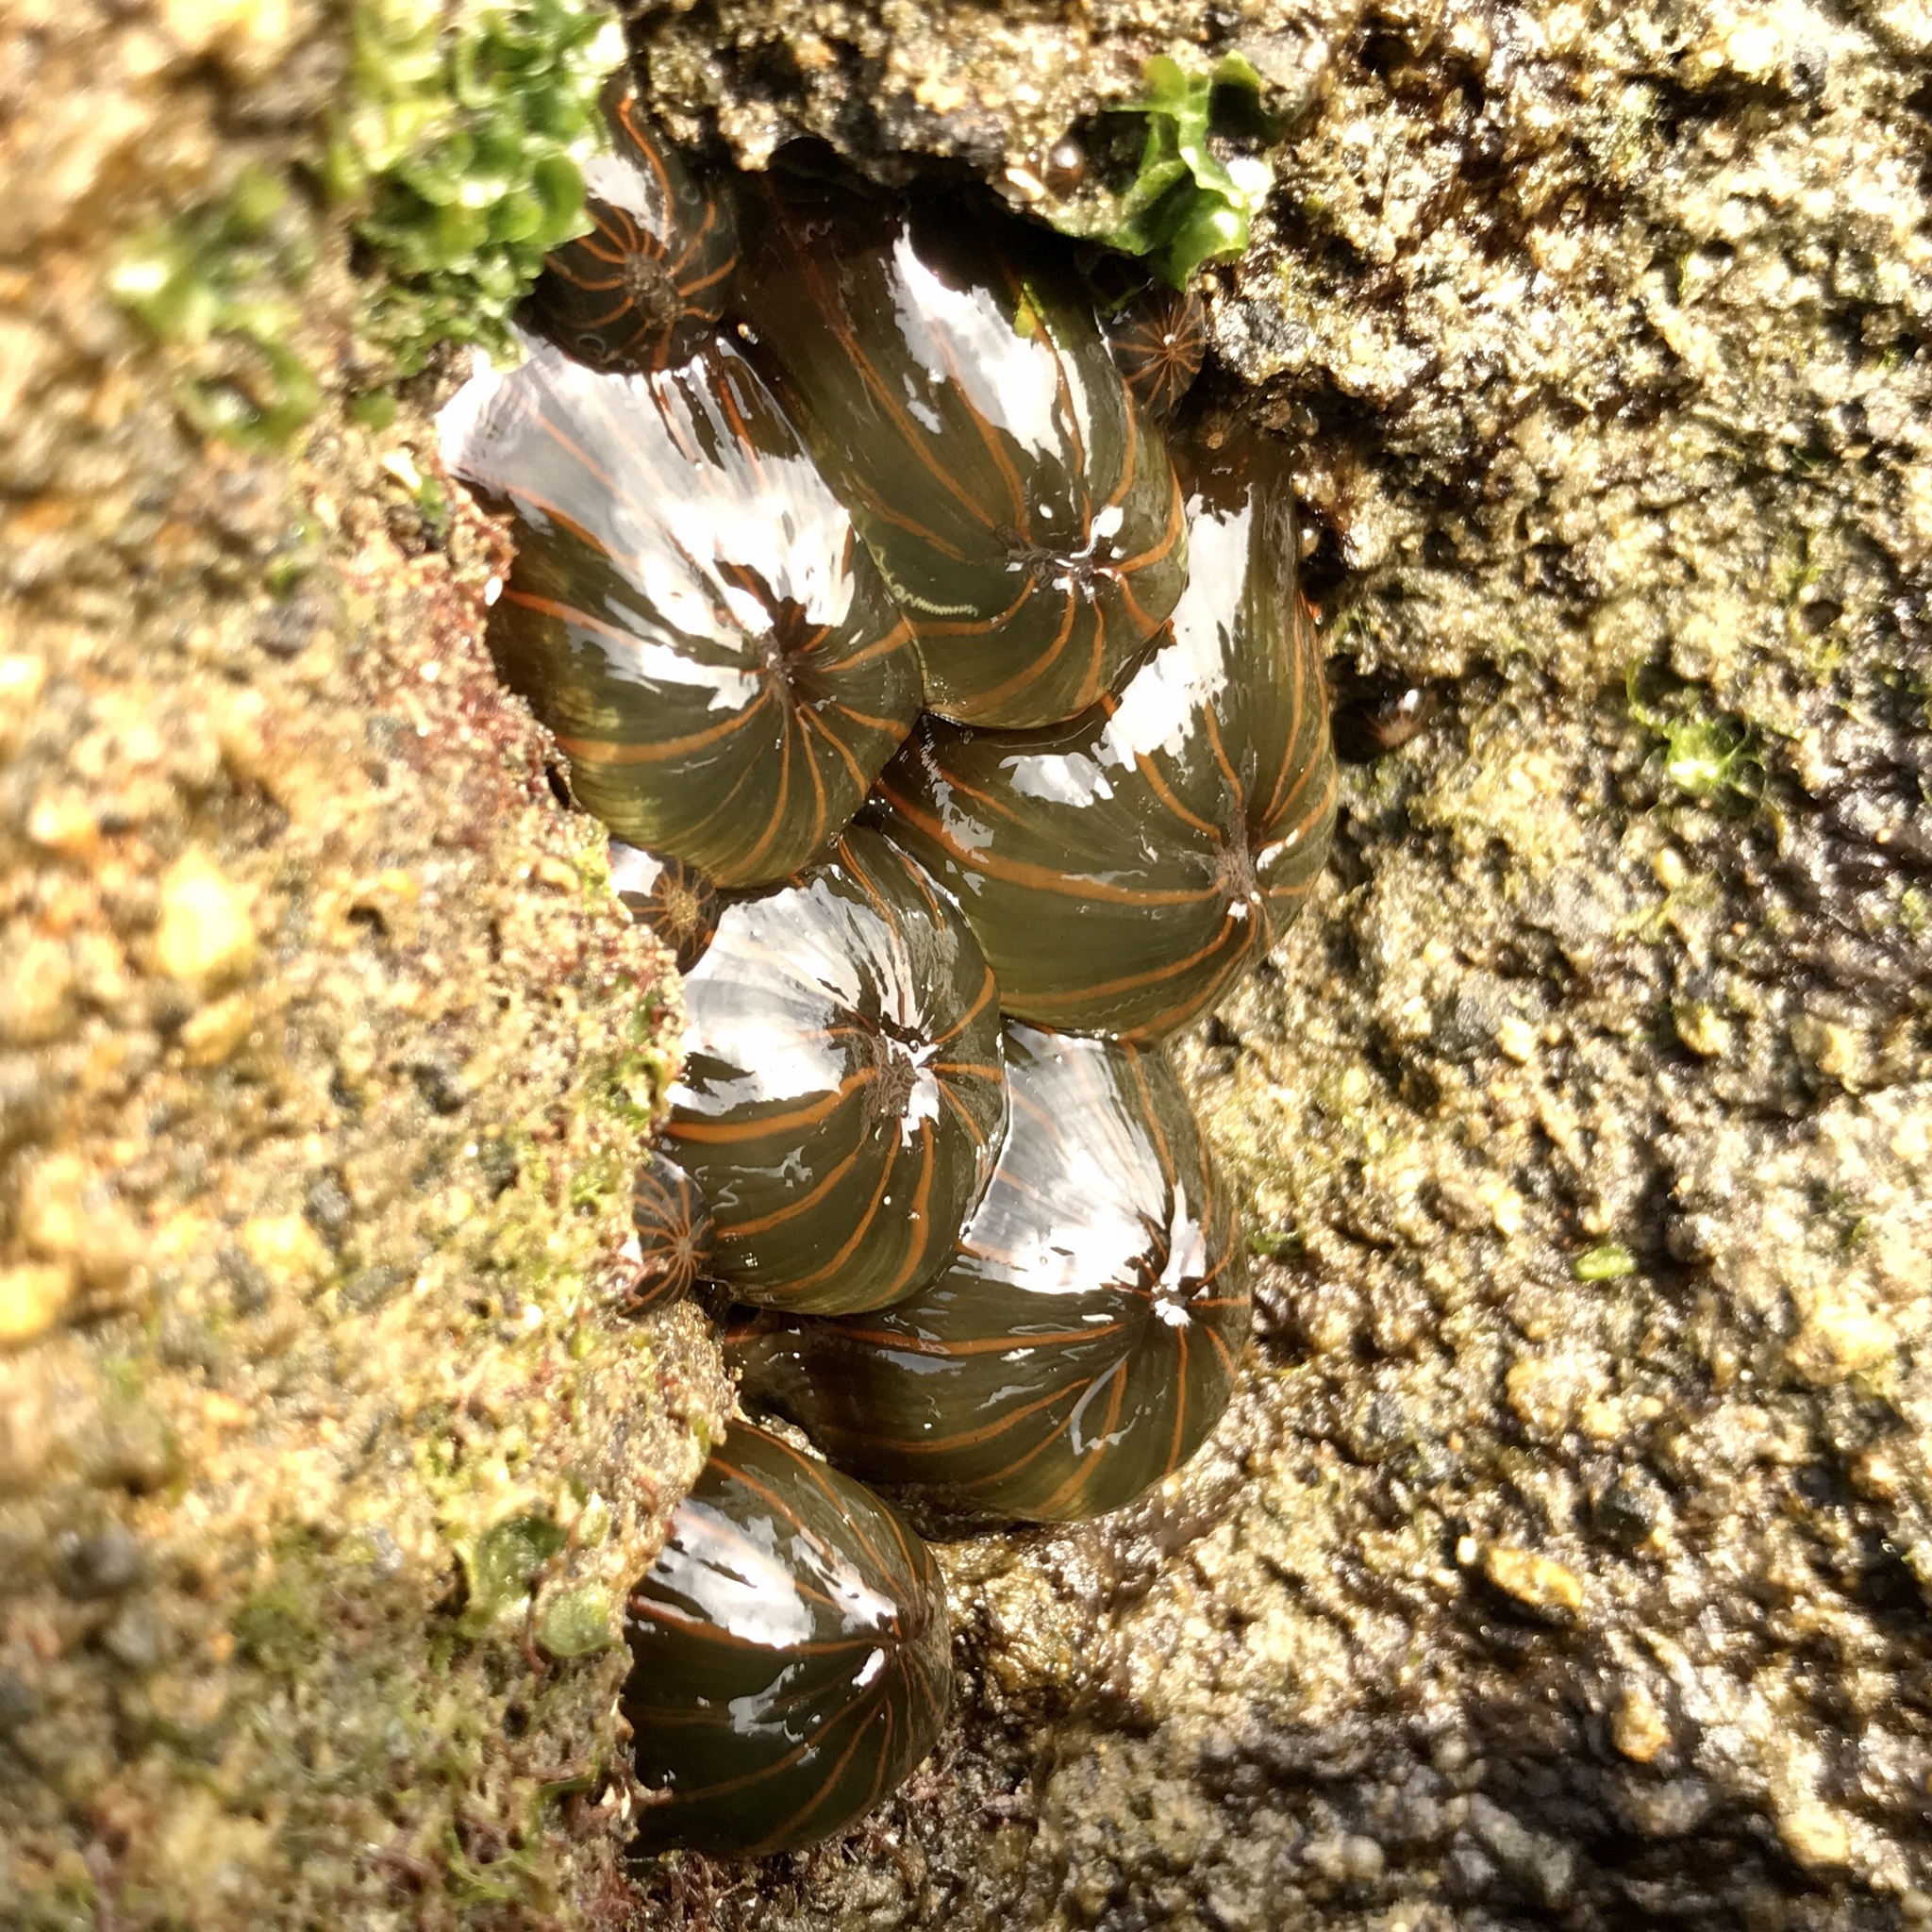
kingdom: Animalia
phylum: Cnidaria
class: Anthozoa
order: Actiniaria
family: Diadumenidae
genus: Diadumene
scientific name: Diadumene lineata
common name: Orange-striped anemone
